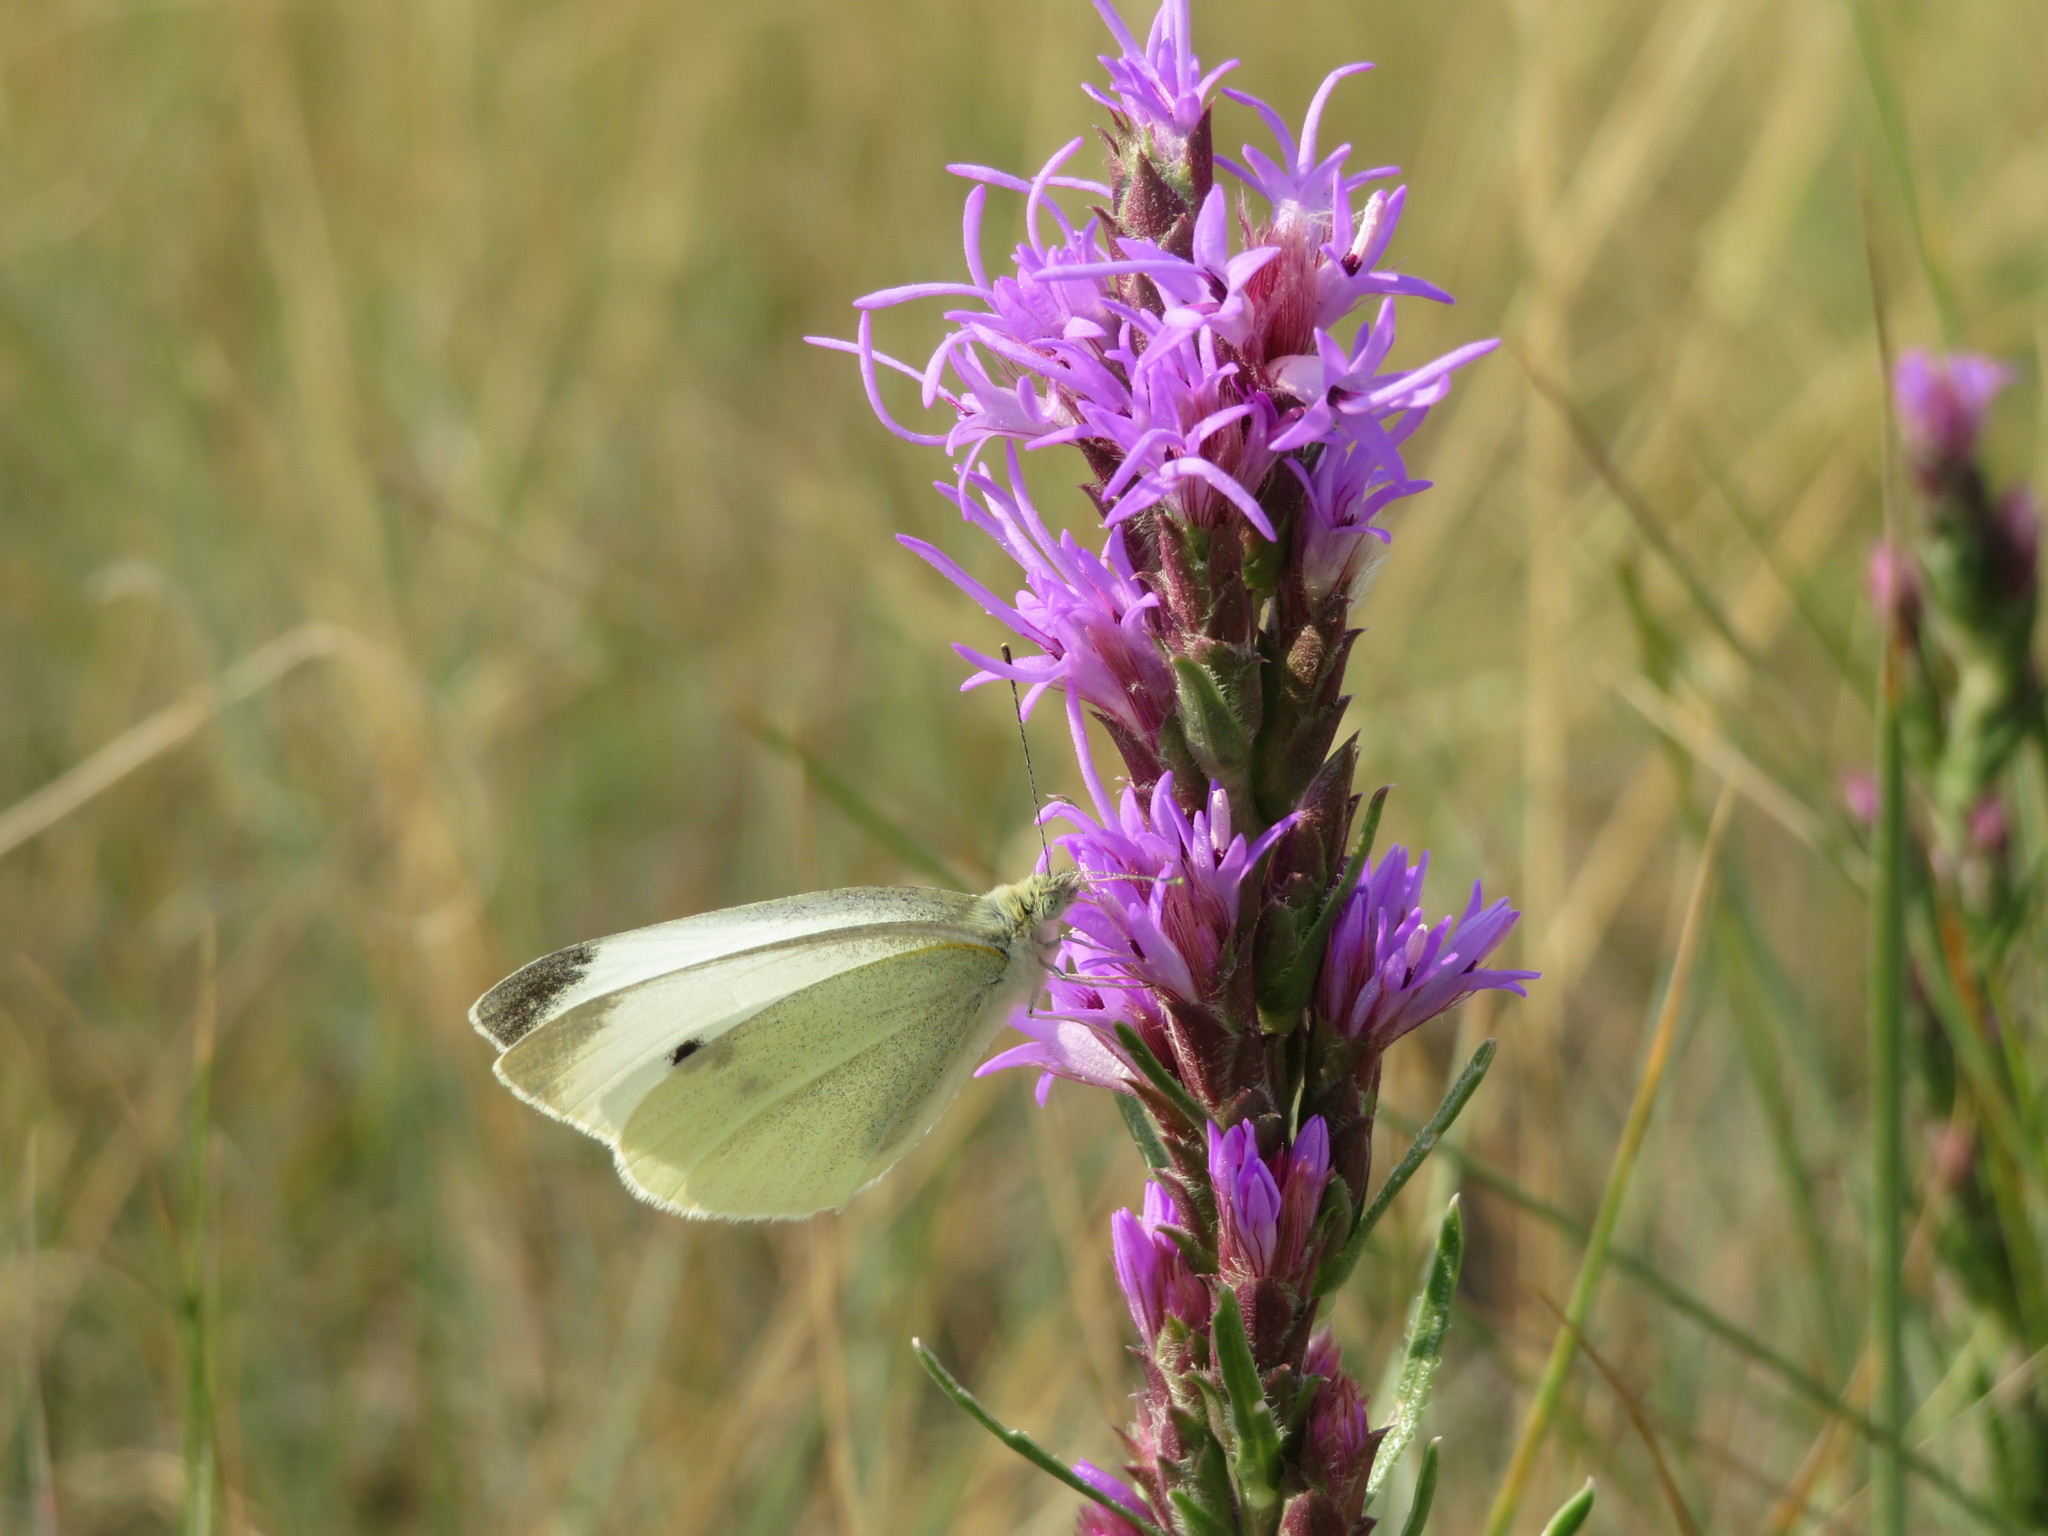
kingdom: Plantae
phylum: Tracheophyta
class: Magnoliopsida
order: Asterales
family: Asteraceae
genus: Liatris
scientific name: Liatris punctata
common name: Dotted gayfeather
